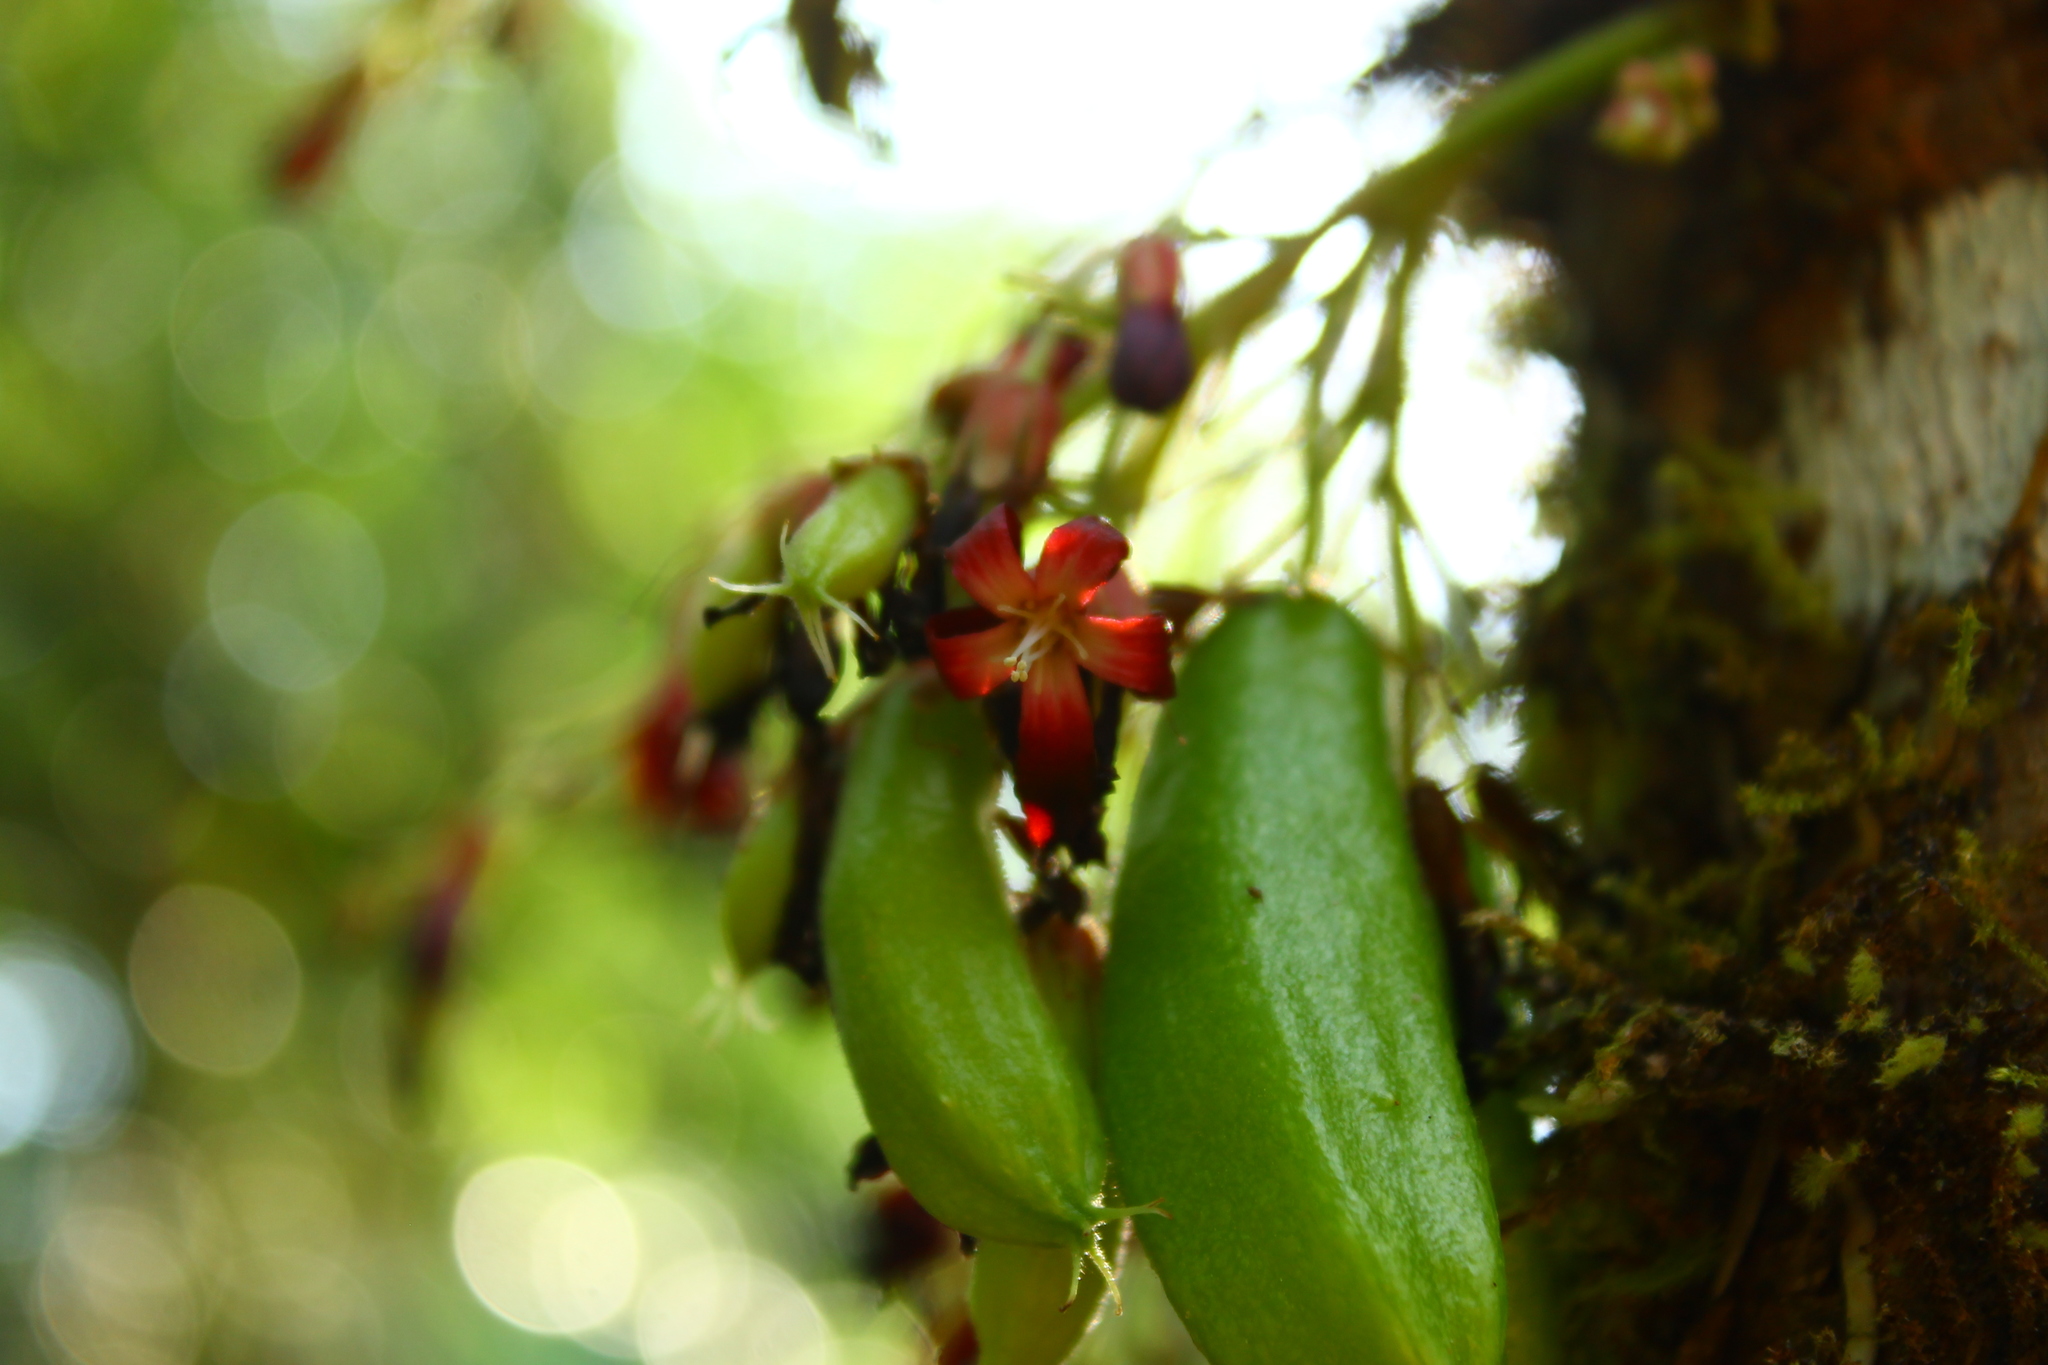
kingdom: Plantae
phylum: Tracheophyta
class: Magnoliopsida
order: Oxalidales
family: Oxalidaceae
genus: Averrhoa
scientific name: Averrhoa bilimbi
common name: Bilimbi
